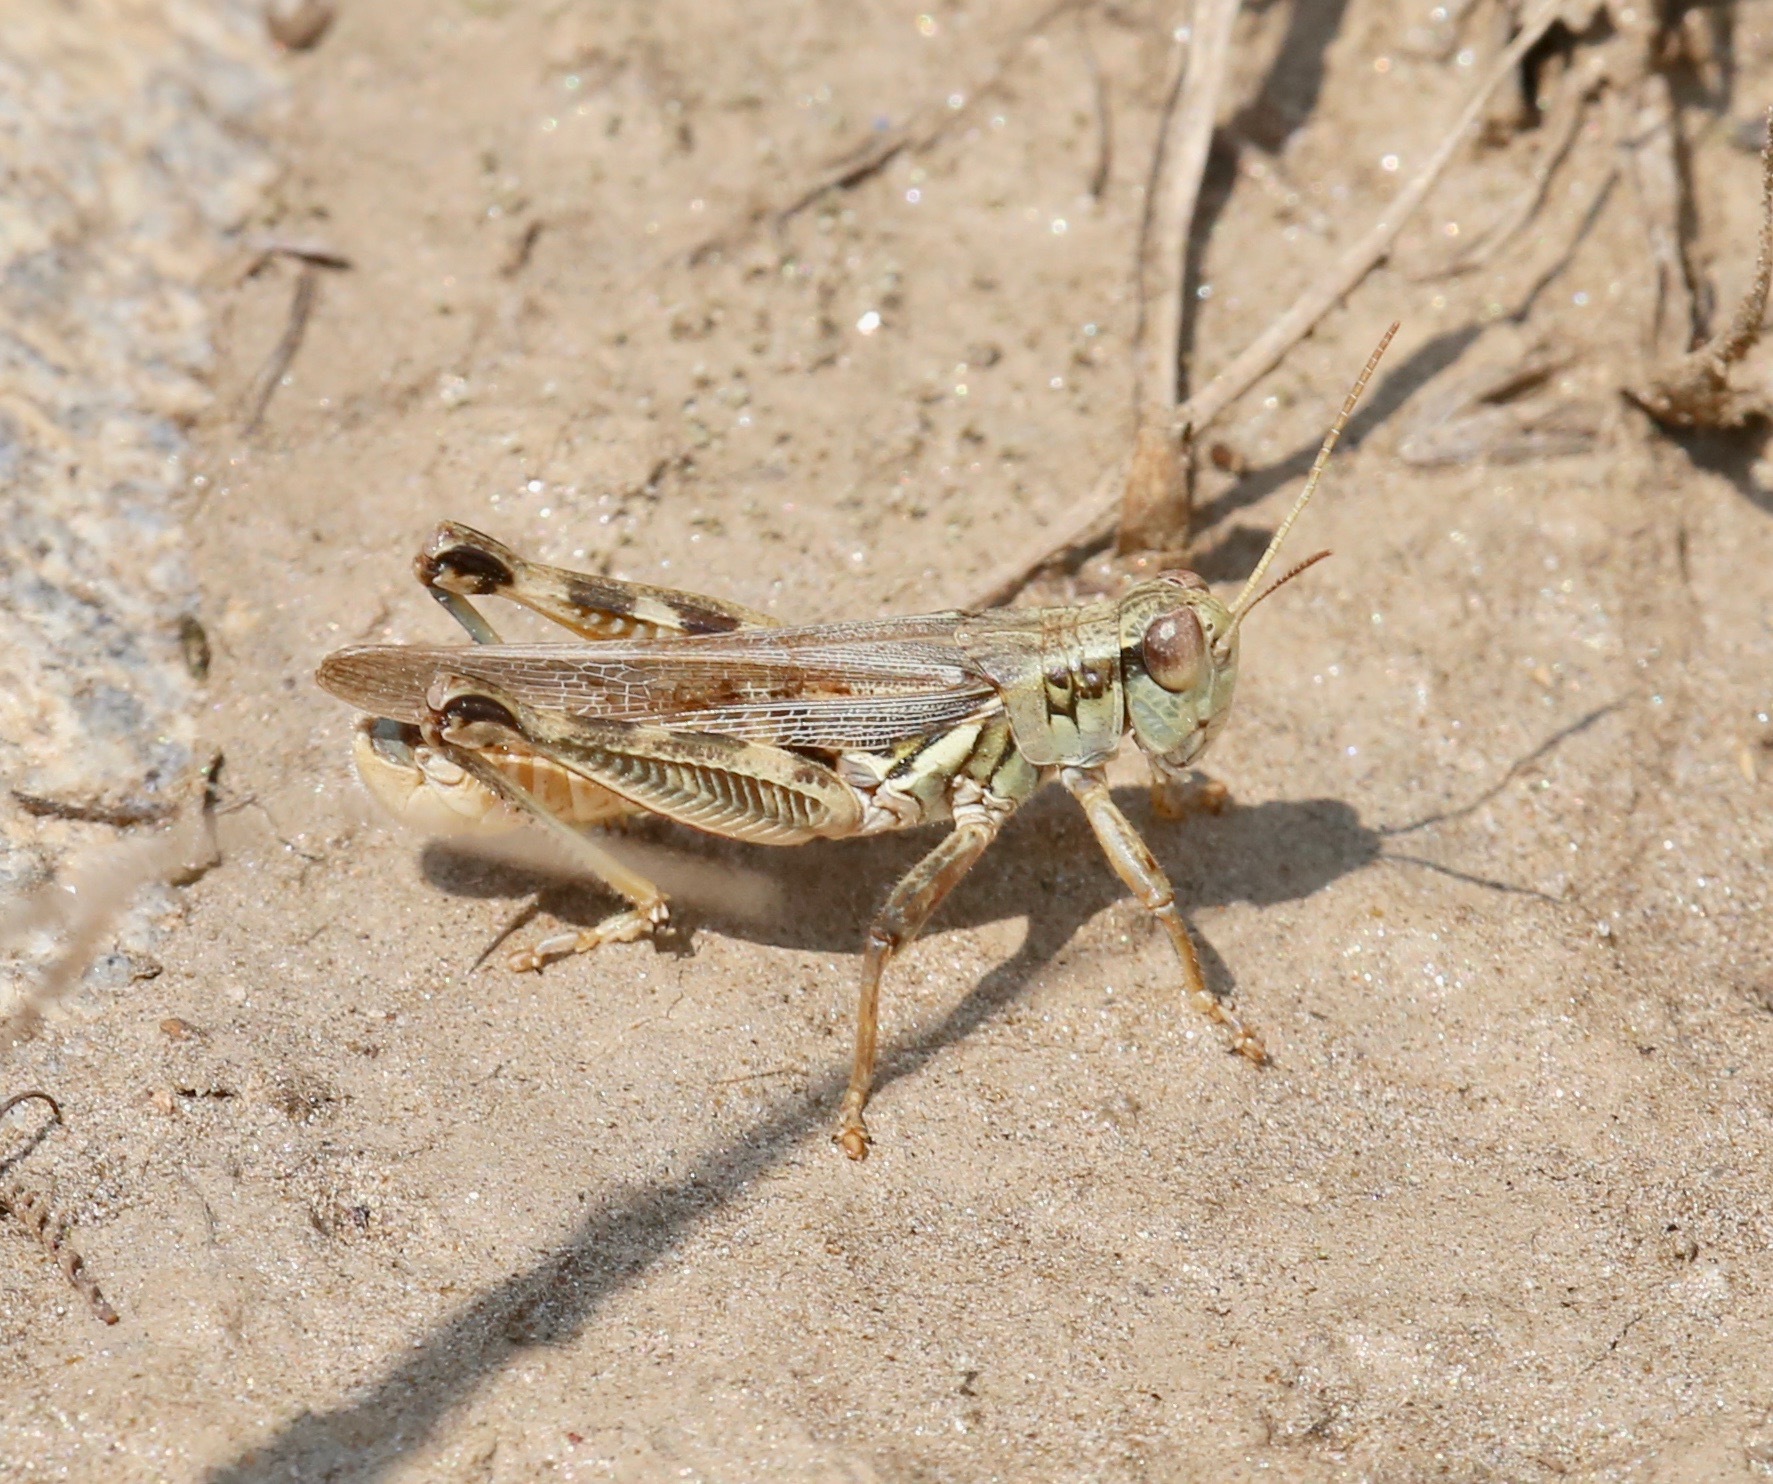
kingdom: Animalia
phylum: Arthropoda
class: Insecta
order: Orthoptera
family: Acrididae
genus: Melanoplus
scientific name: Melanoplus sanguinipes
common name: Migratory grasshopper
